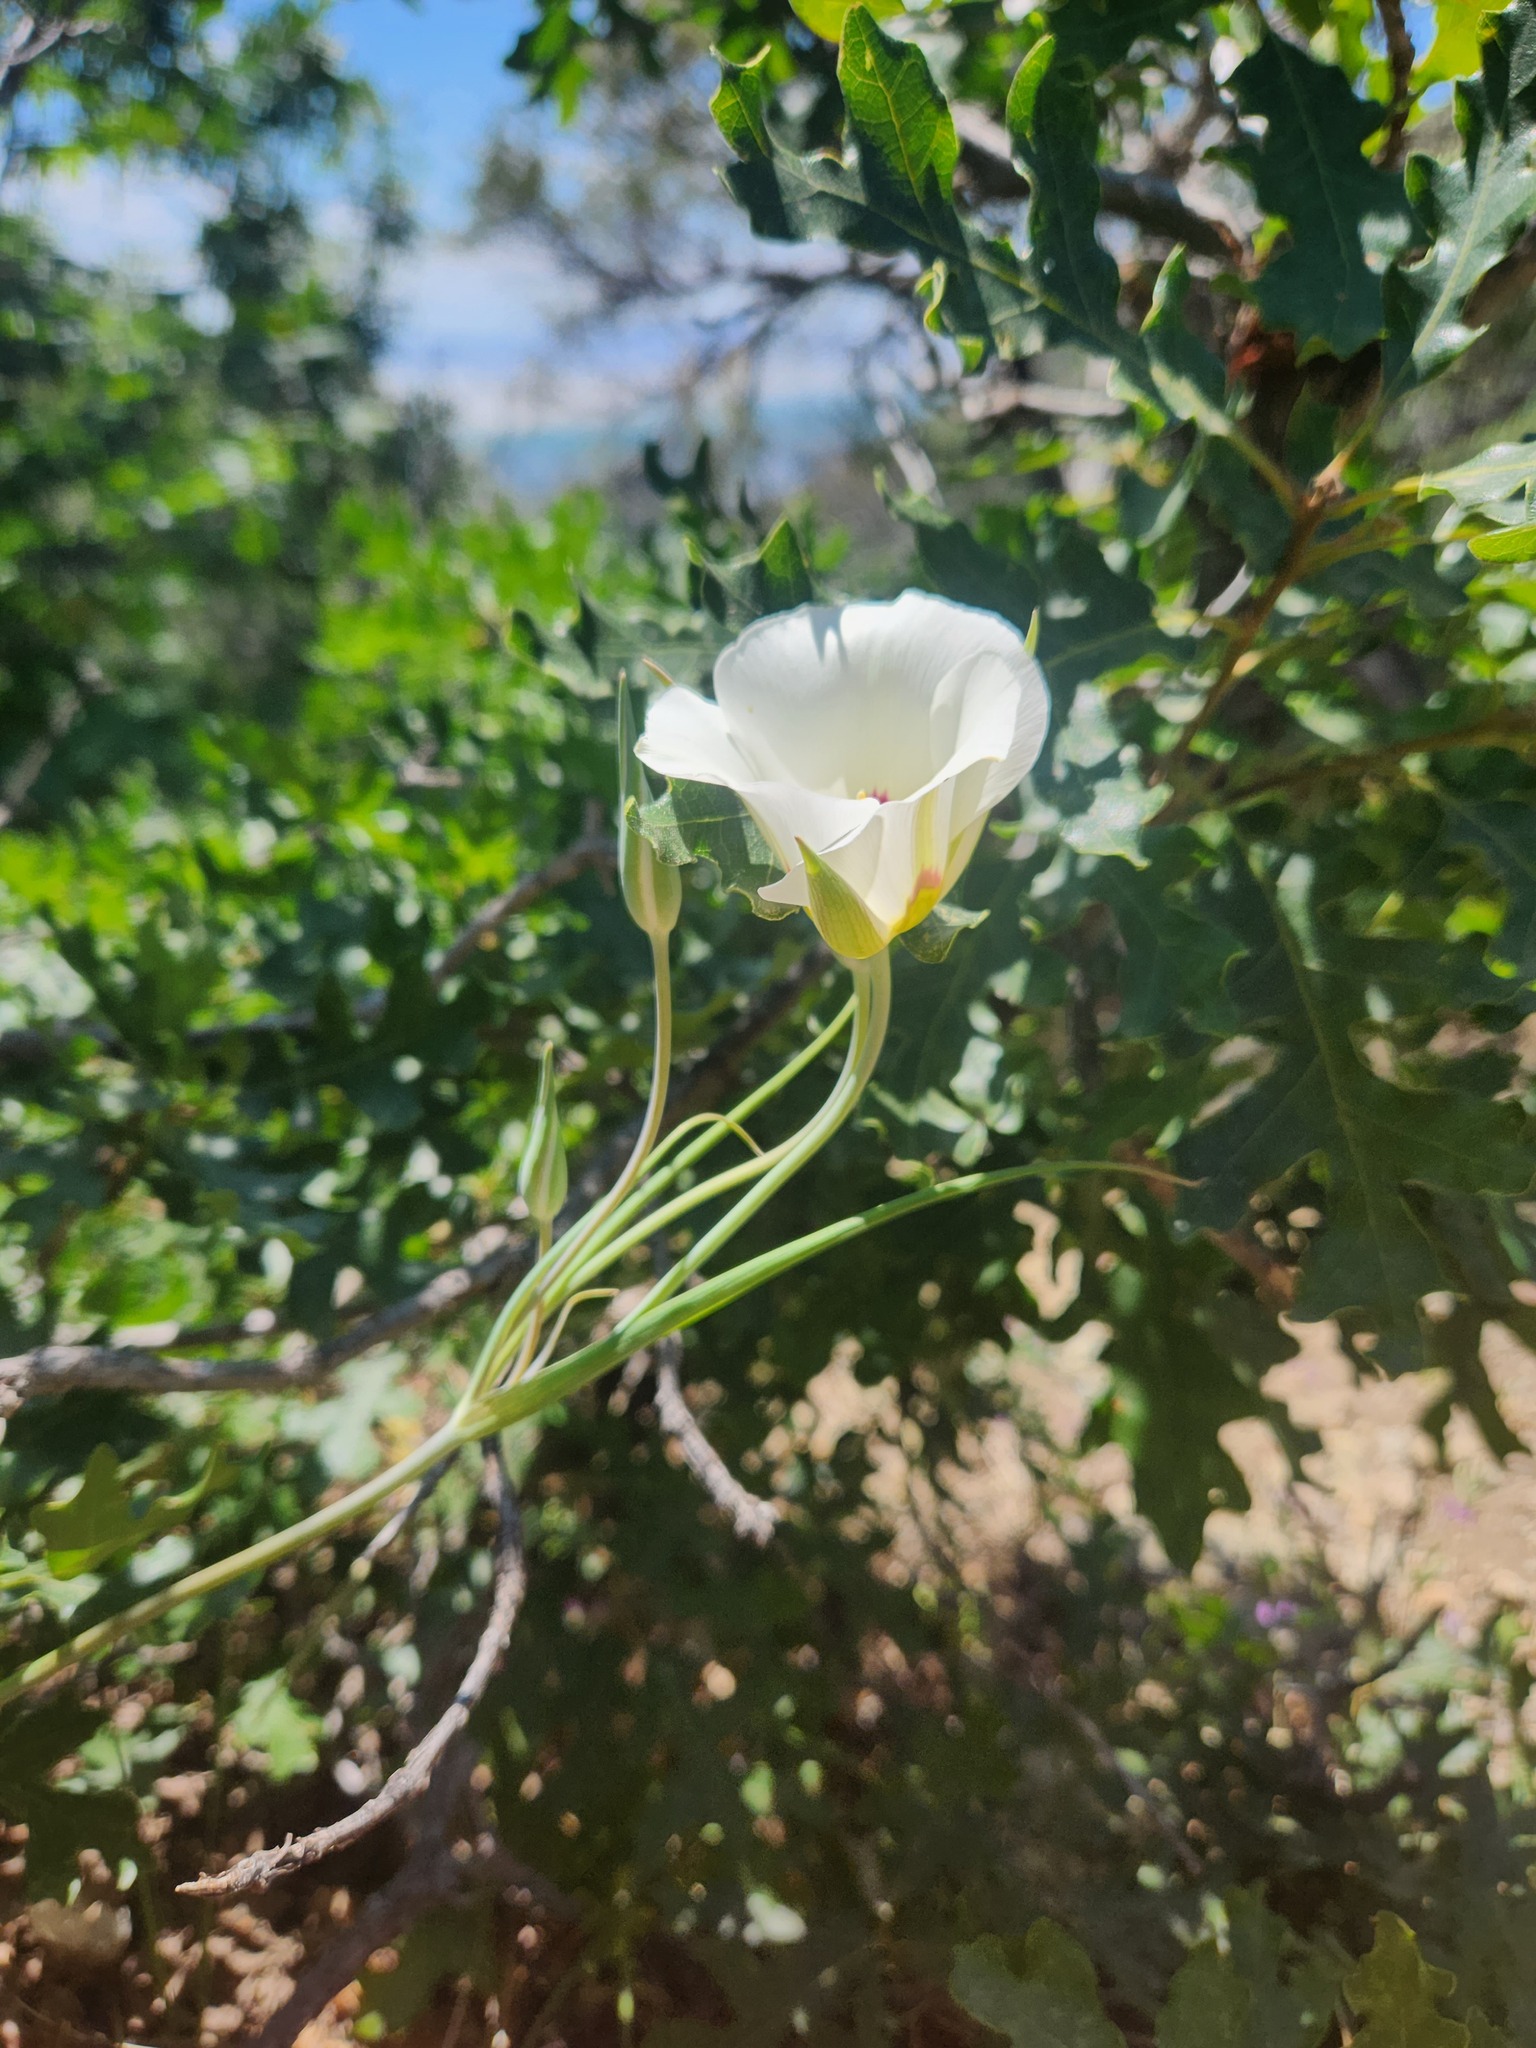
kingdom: Plantae
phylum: Tracheophyta
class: Liliopsida
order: Liliales
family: Liliaceae
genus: Calochortus
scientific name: Calochortus nuttallii
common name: Sego-lily
